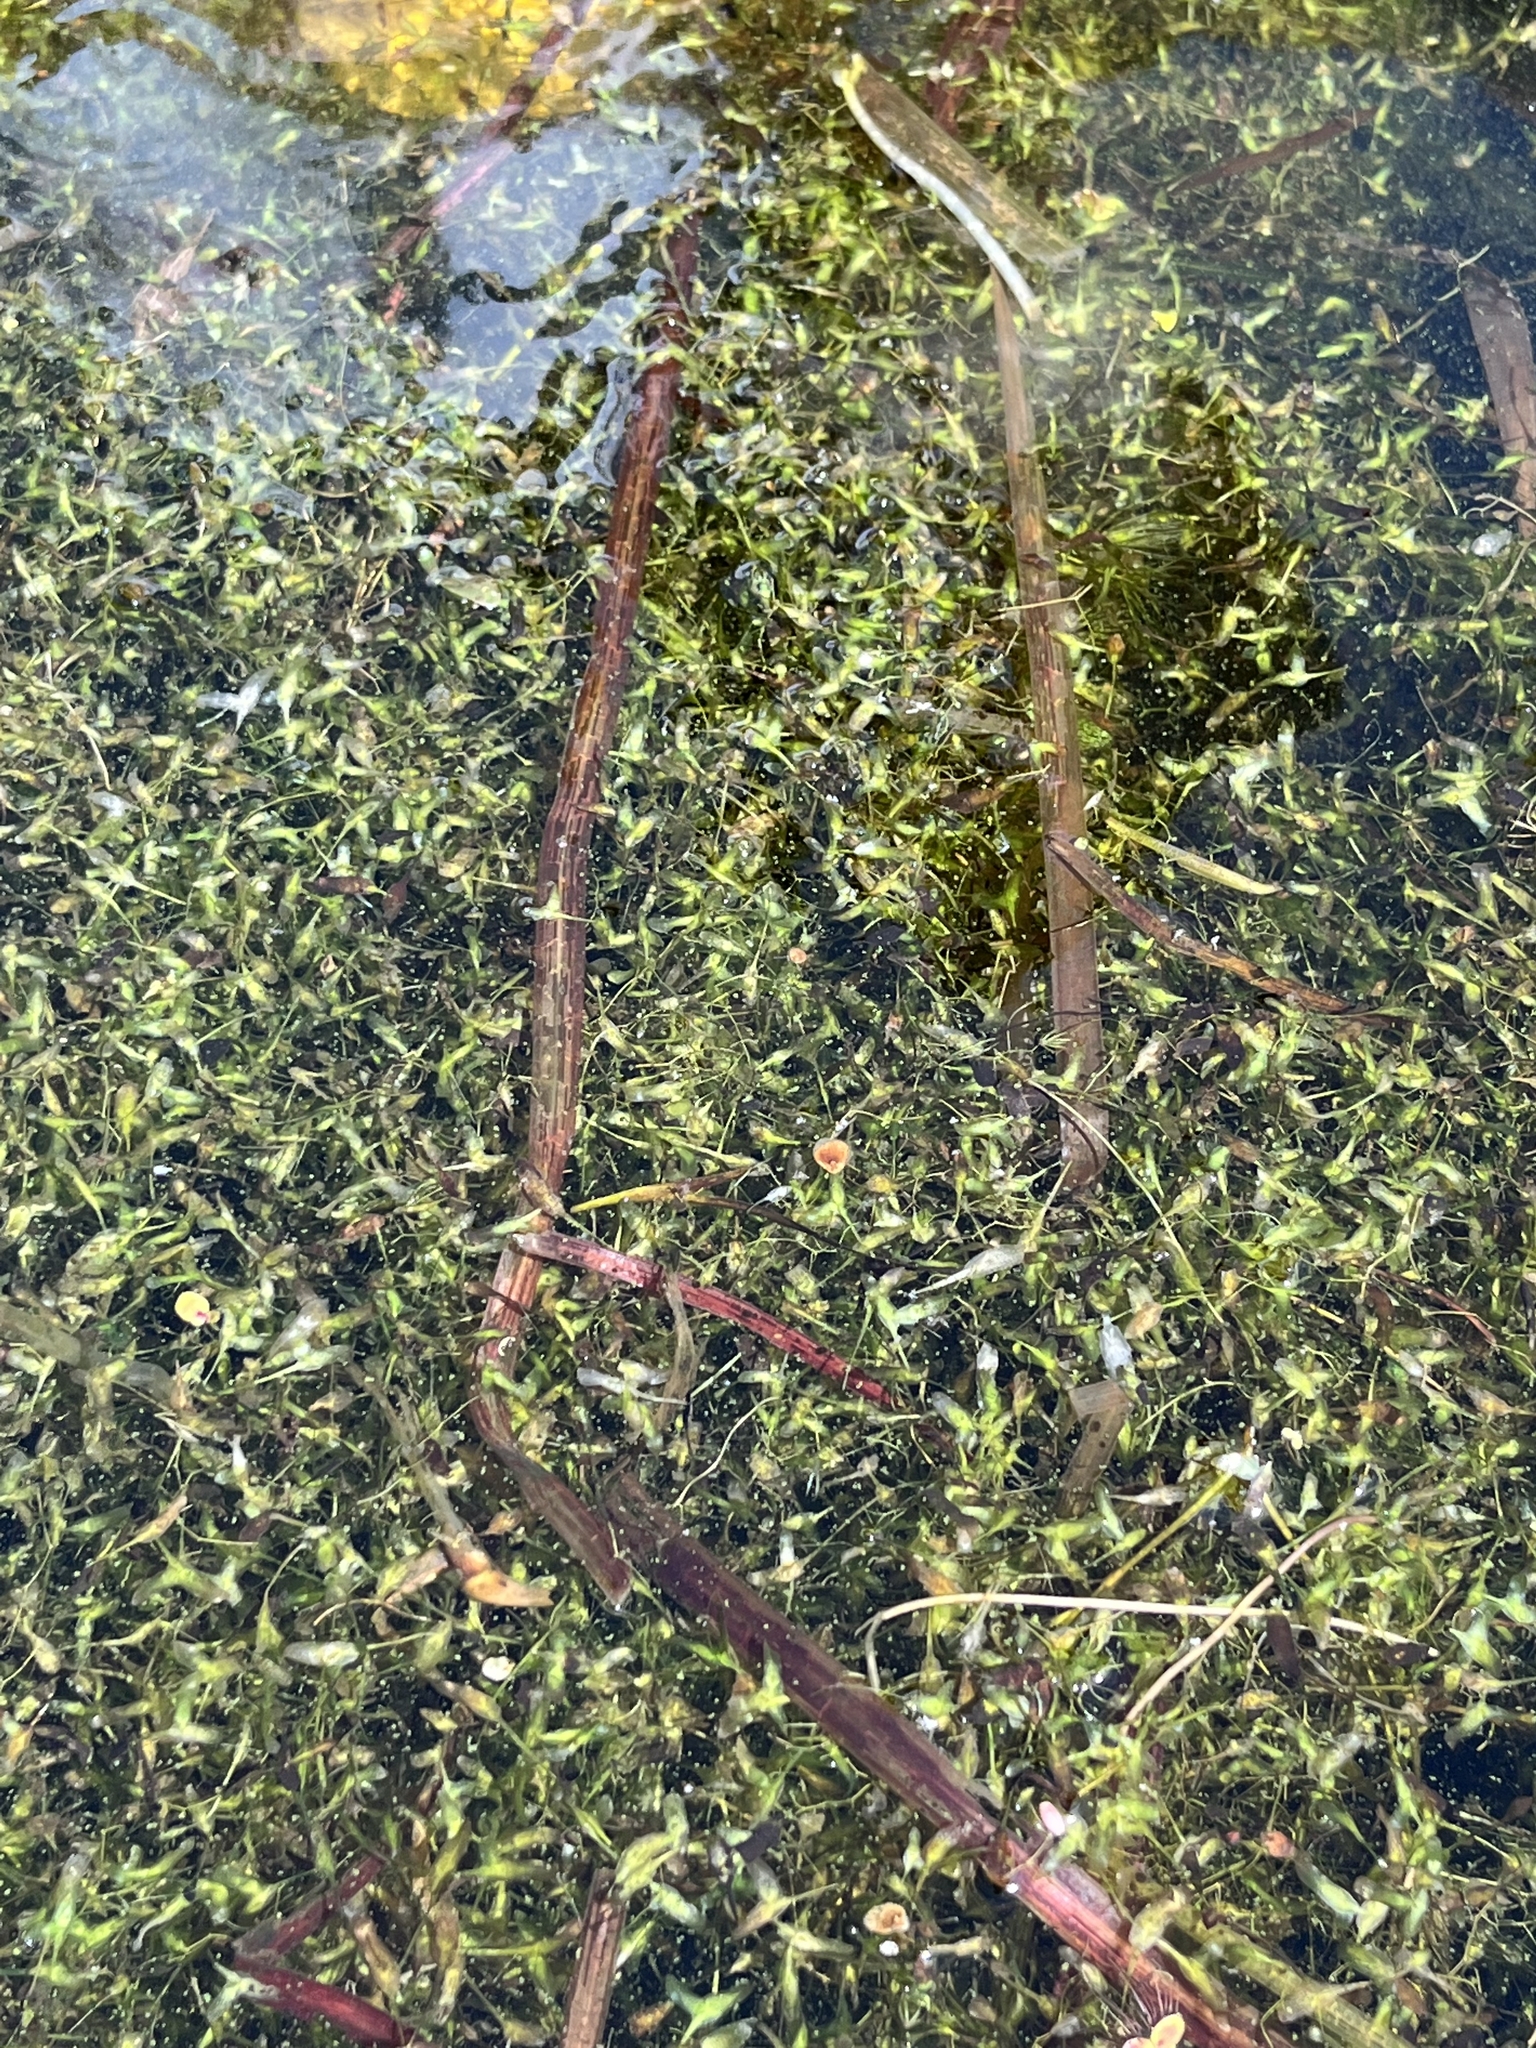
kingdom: Plantae
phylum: Tracheophyta
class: Liliopsida
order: Alismatales
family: Araceae
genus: Lemna
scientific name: Lemna trisulca
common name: Ivy-leaved duckweed
